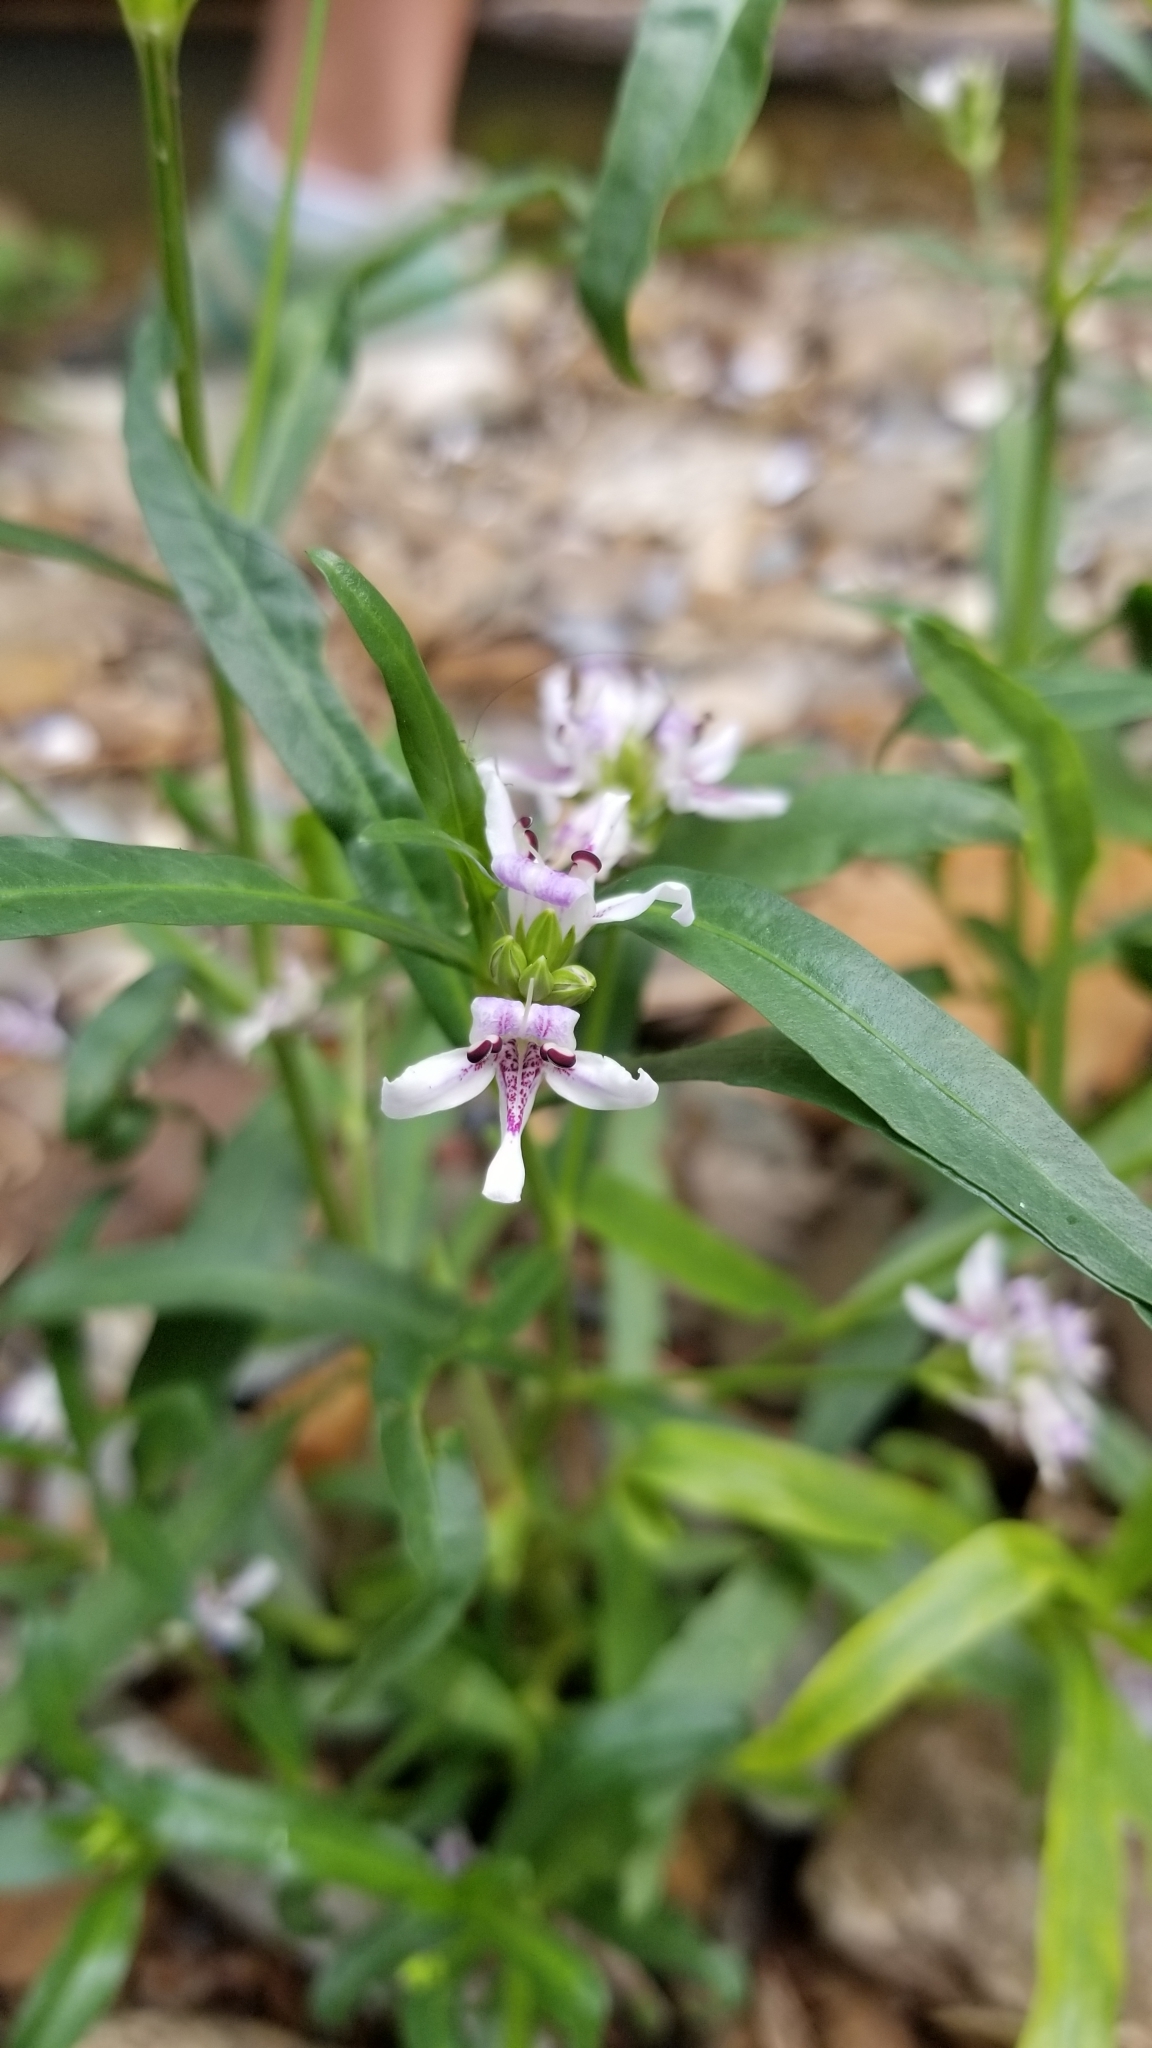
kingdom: Plantae
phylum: Tracheophyta
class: Magnoliopsida
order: Lamiales
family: Acanthaceae
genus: Dianthera
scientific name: Dianthera americana
